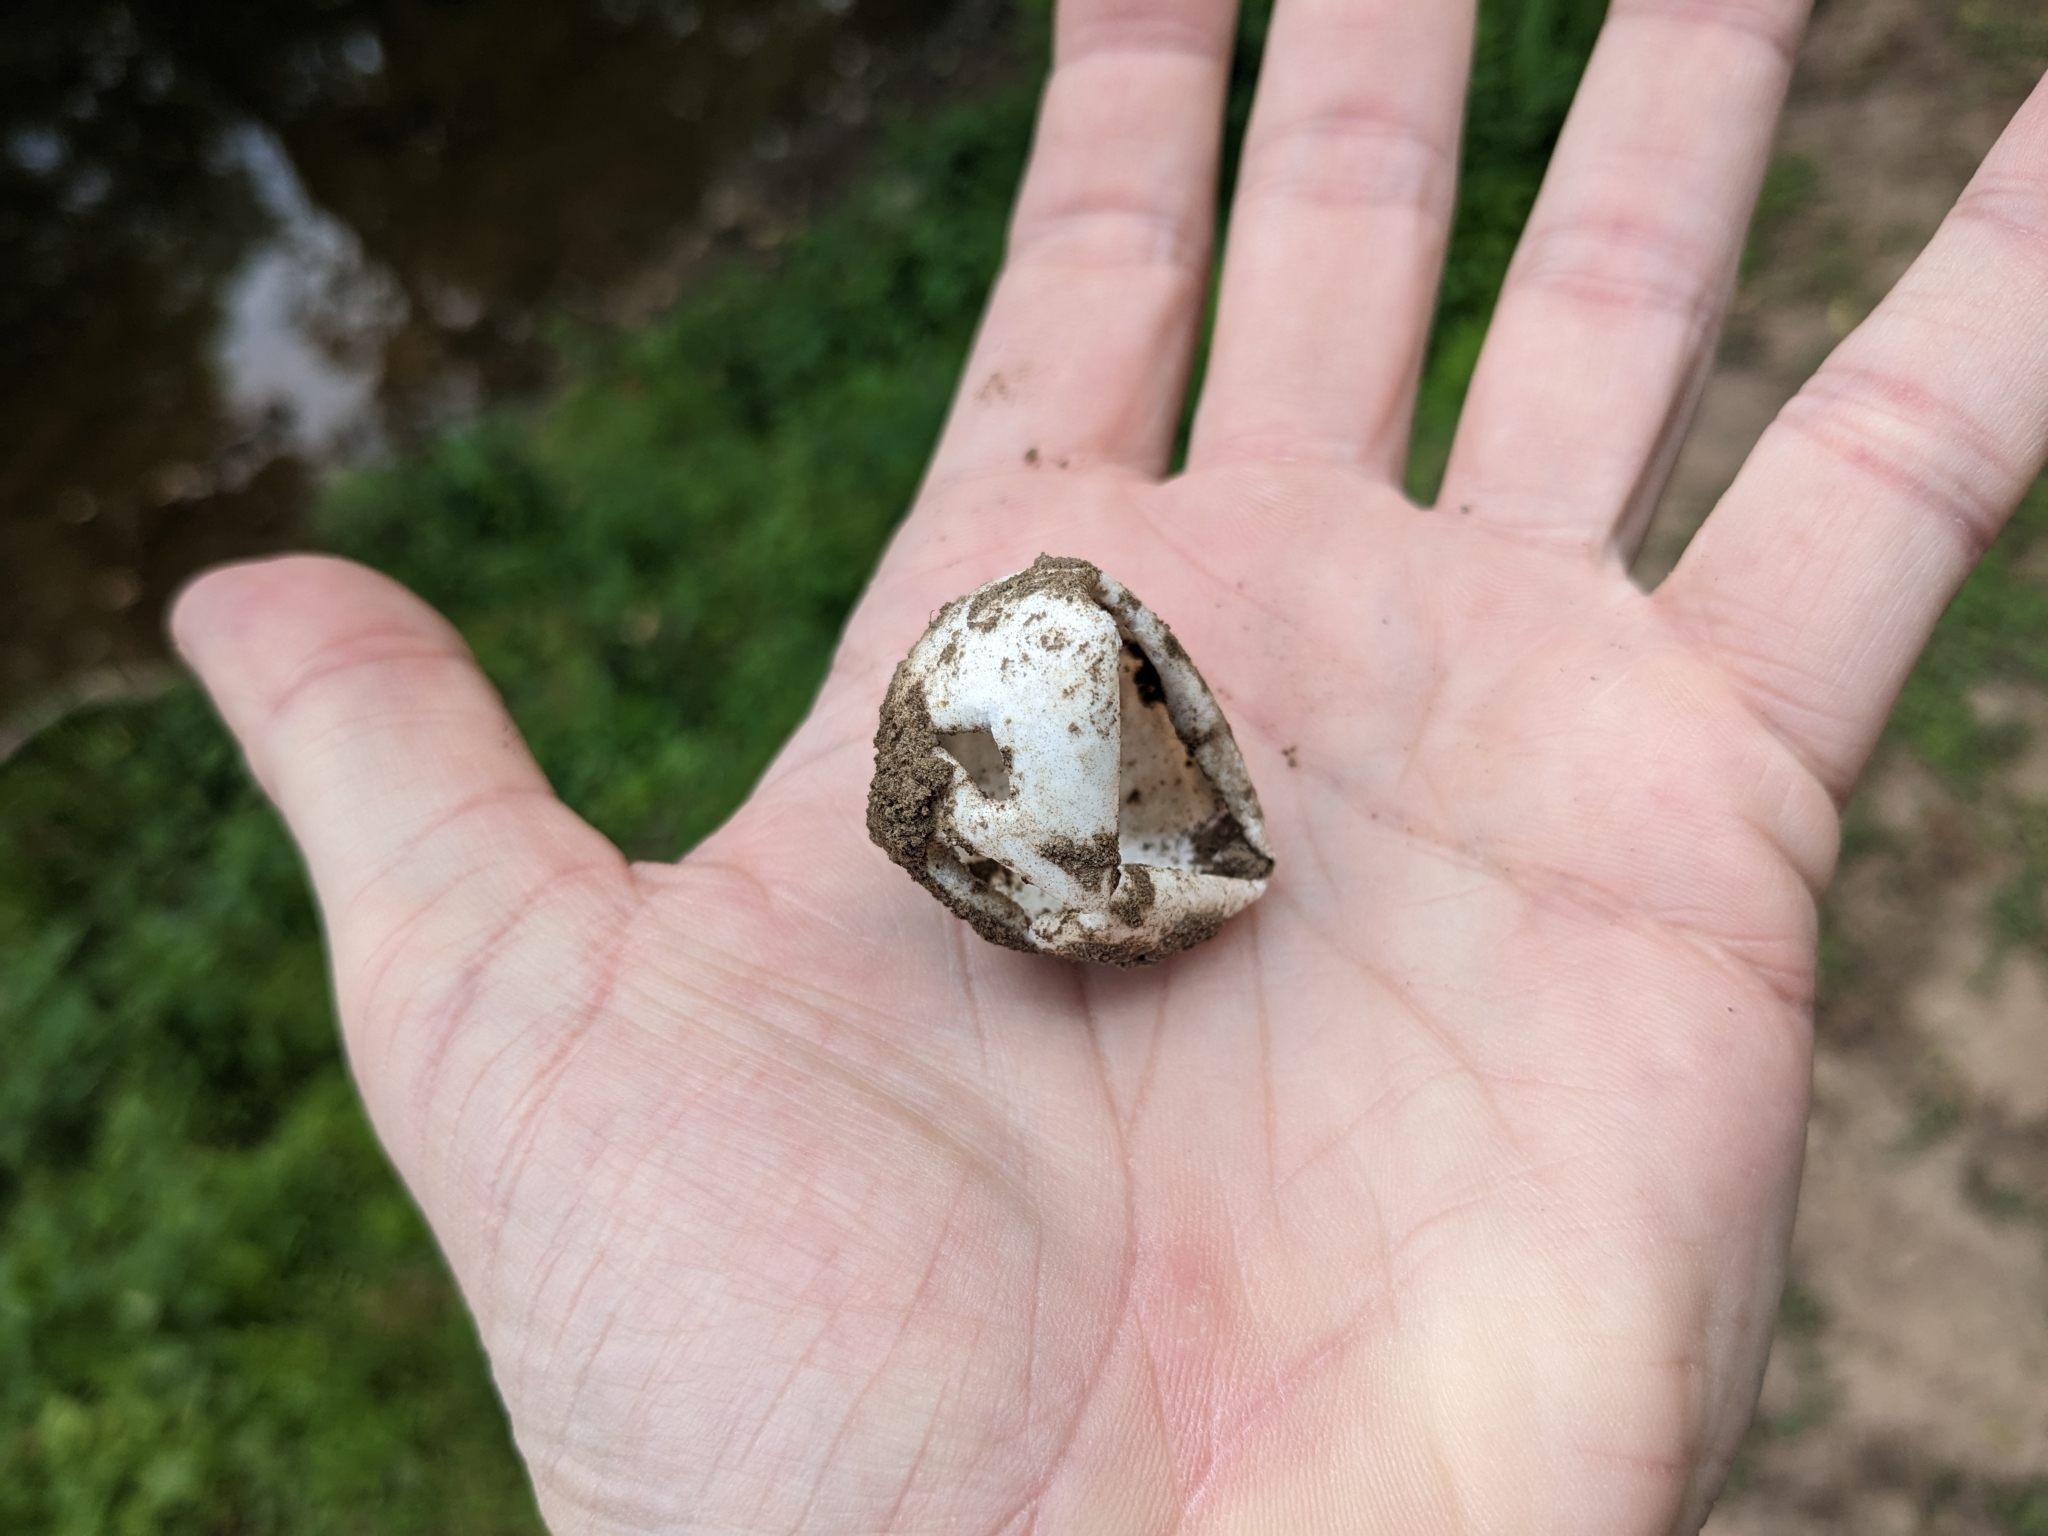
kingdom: Animalia
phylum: Chordata
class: Testudines
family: Chelydridae
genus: Chelydra
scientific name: Chelydra serpentina
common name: Common snapping turtle
